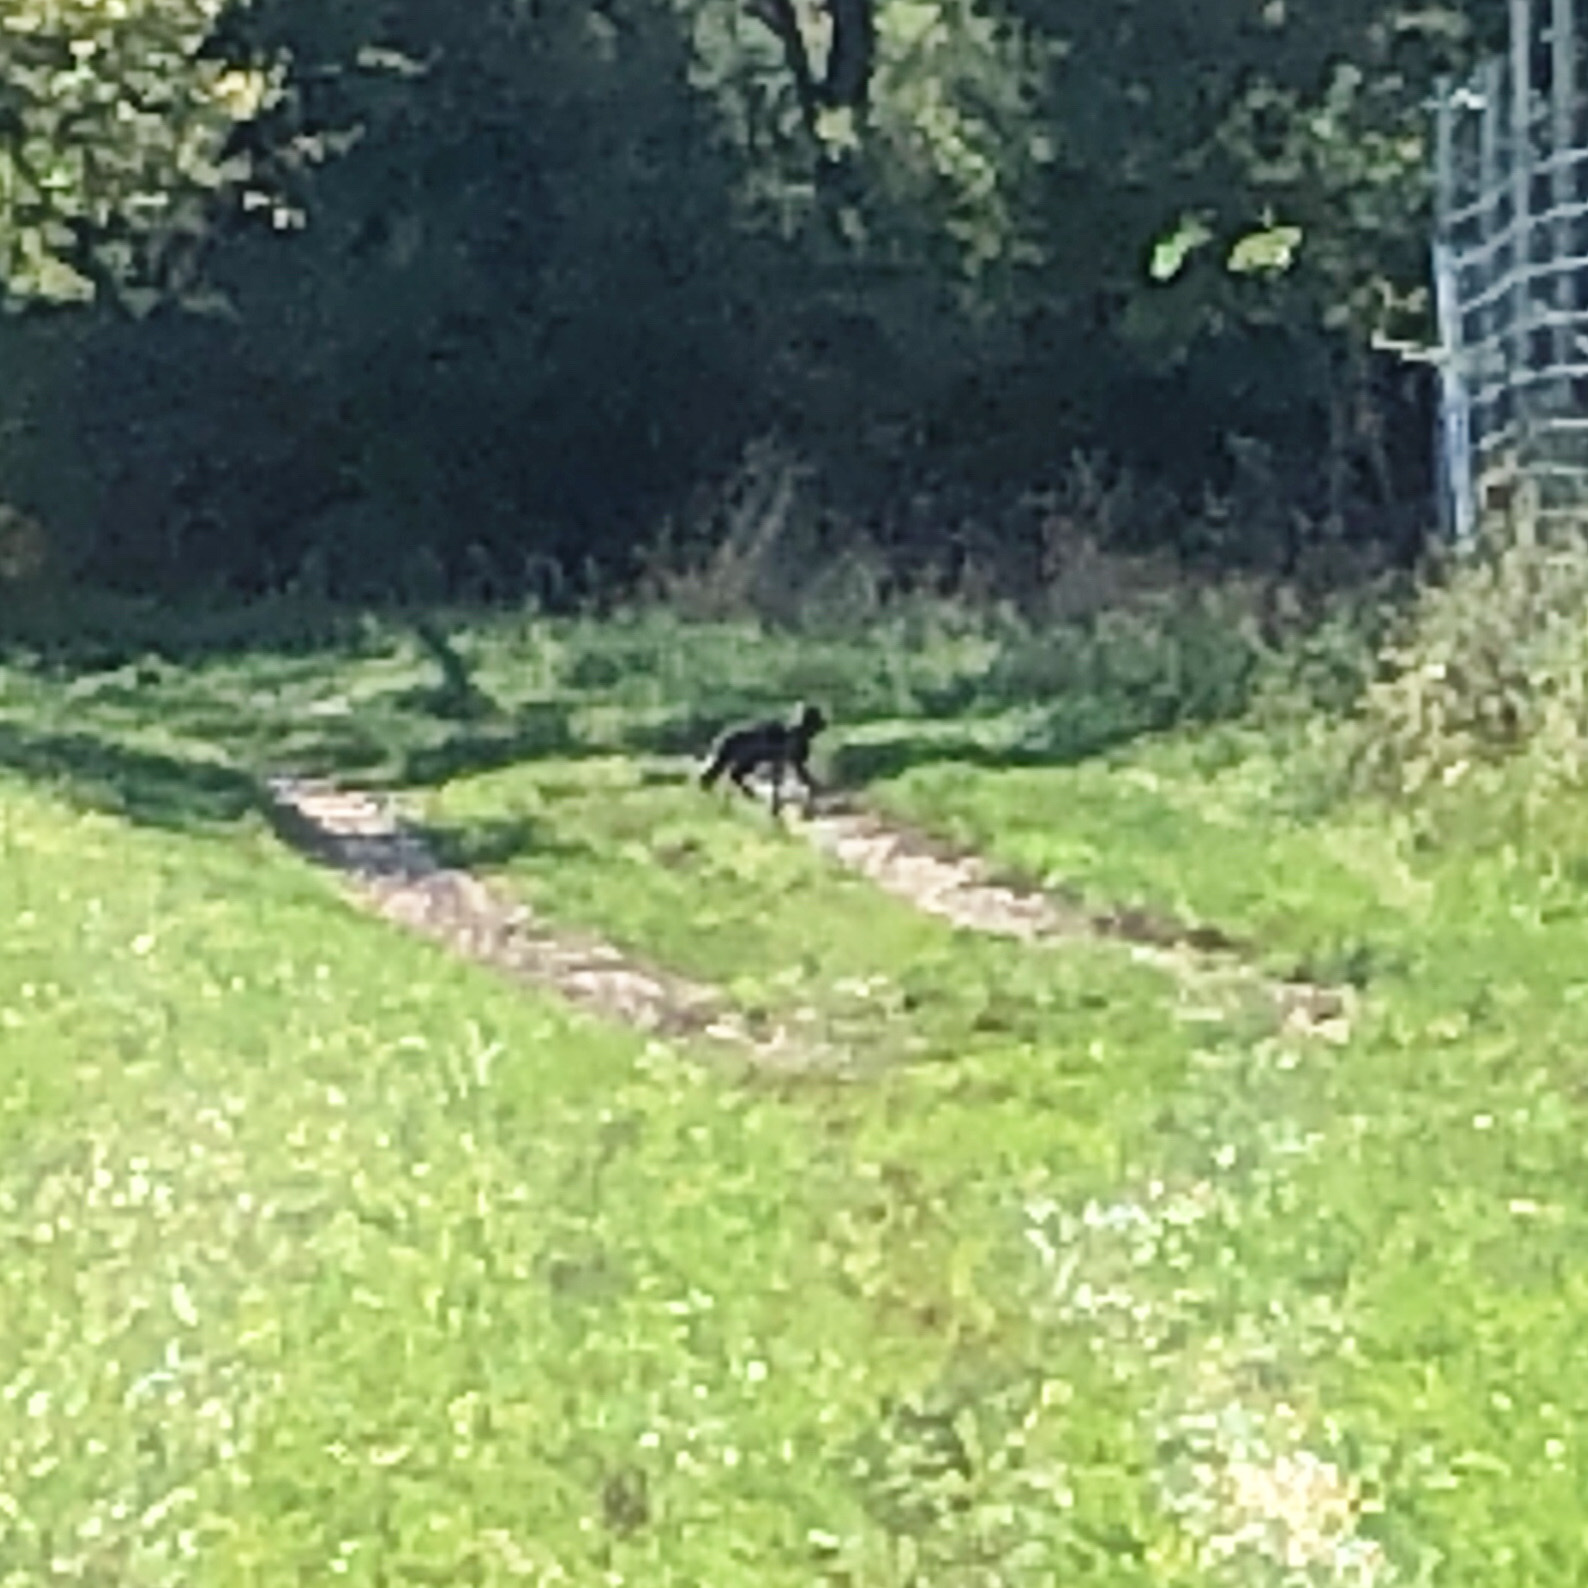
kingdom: Animalia
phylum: Chordata
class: Mammalia
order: Carnivora
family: Canidae
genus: Urocyon
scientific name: Urocyon cinereoargenteus
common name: Gray fox
